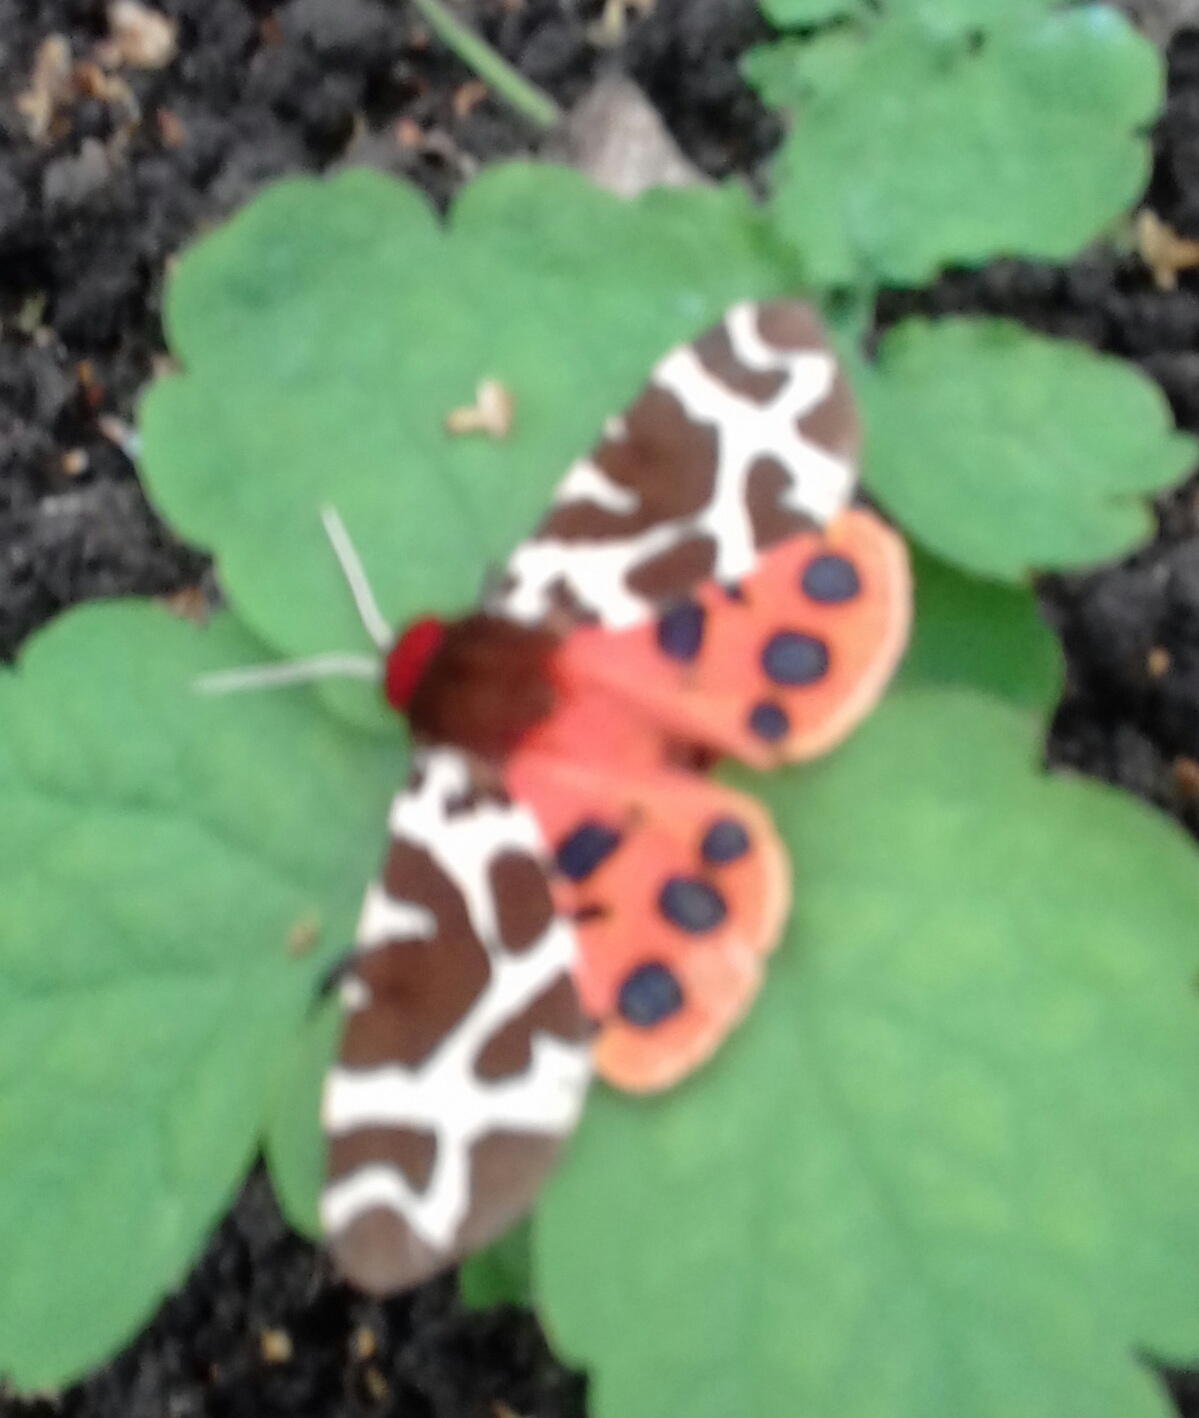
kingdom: Animalia
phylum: Arthropoda
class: Insecta
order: Lepidoptera
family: Erebidae
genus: Arctia
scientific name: Arctia caja
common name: Garden tiger
